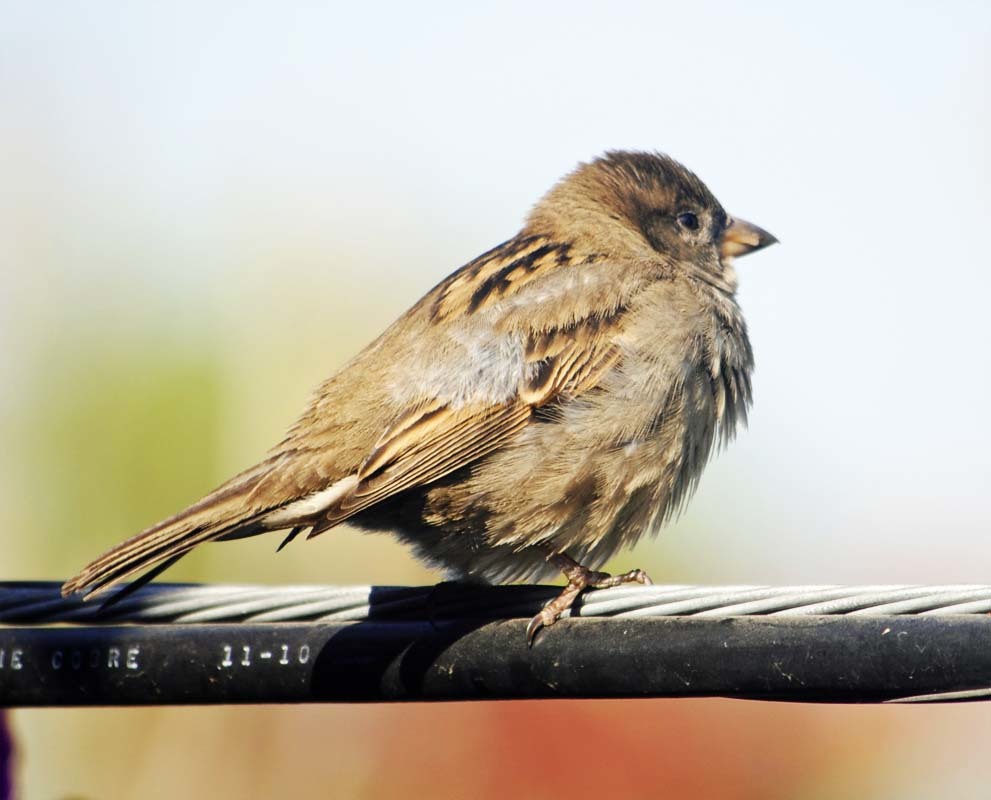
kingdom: Animalia
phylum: Chordata
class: Aves
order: Passeriformes
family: Passeridae
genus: Passer
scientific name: Passer domesticus
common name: House sparrow
